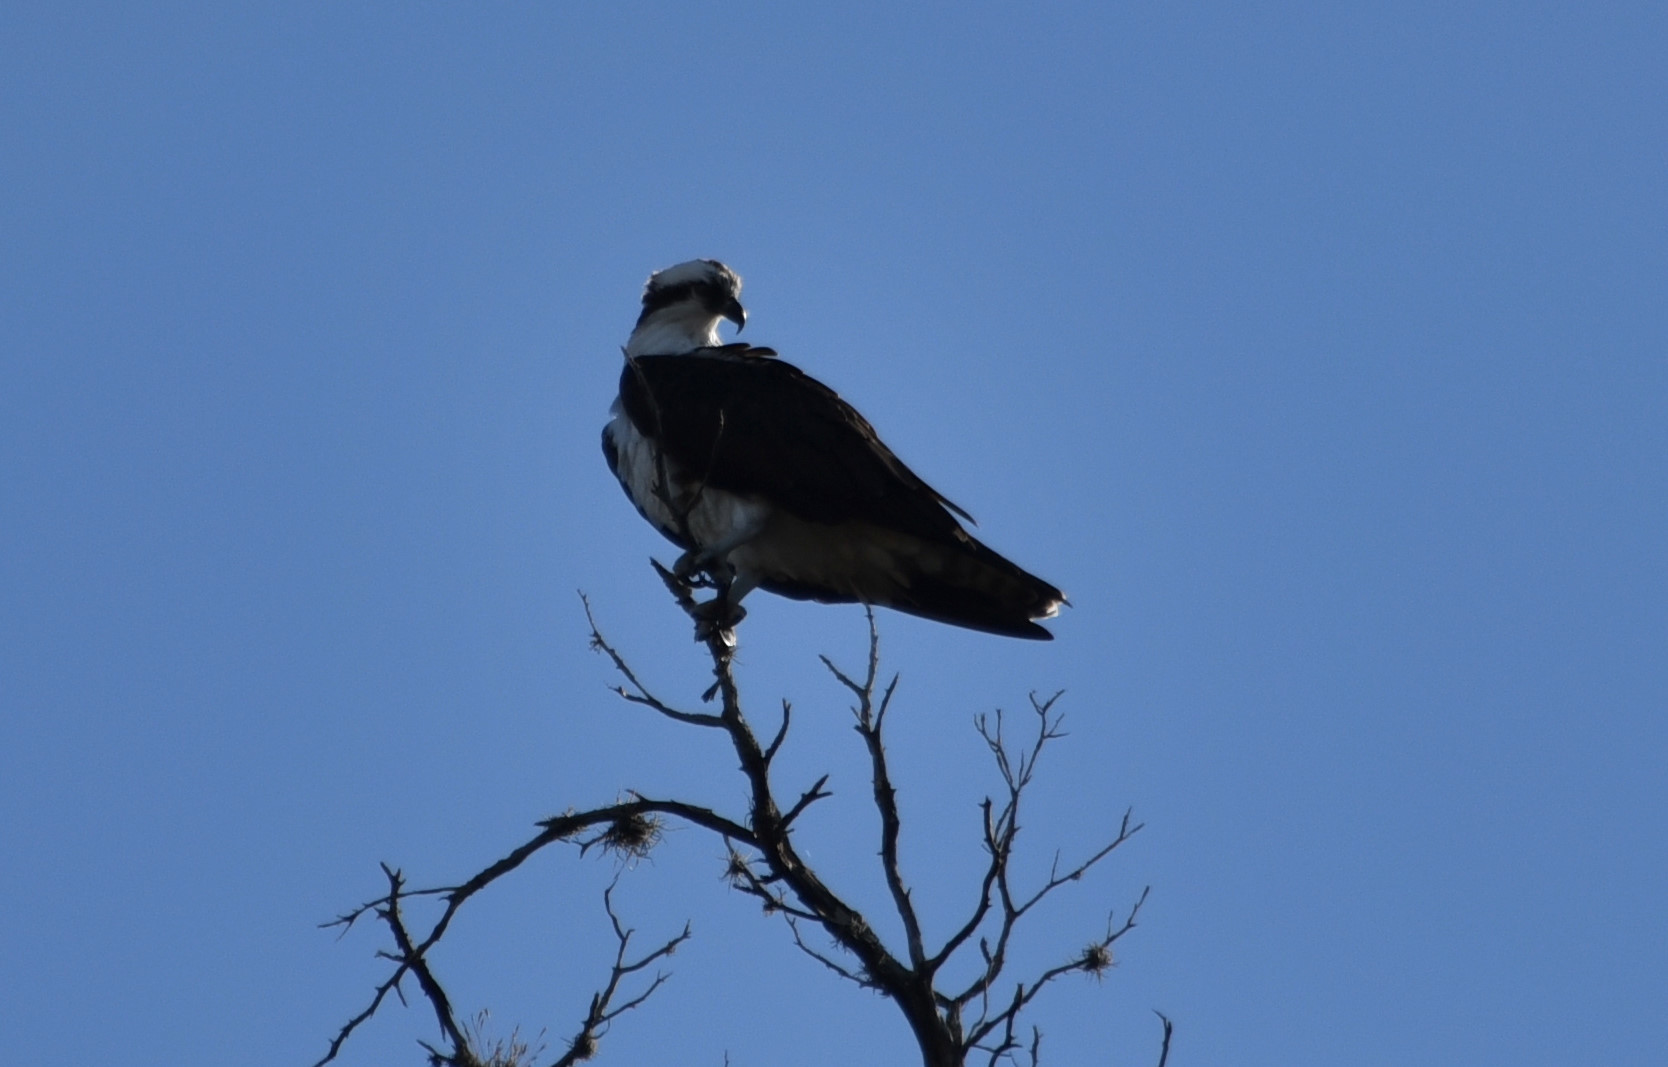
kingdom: Animalia
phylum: Chordata
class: Aves
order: Accipitriformes
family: Pandionidae
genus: Pandion
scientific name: Pandion haliaetus
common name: Osprey
